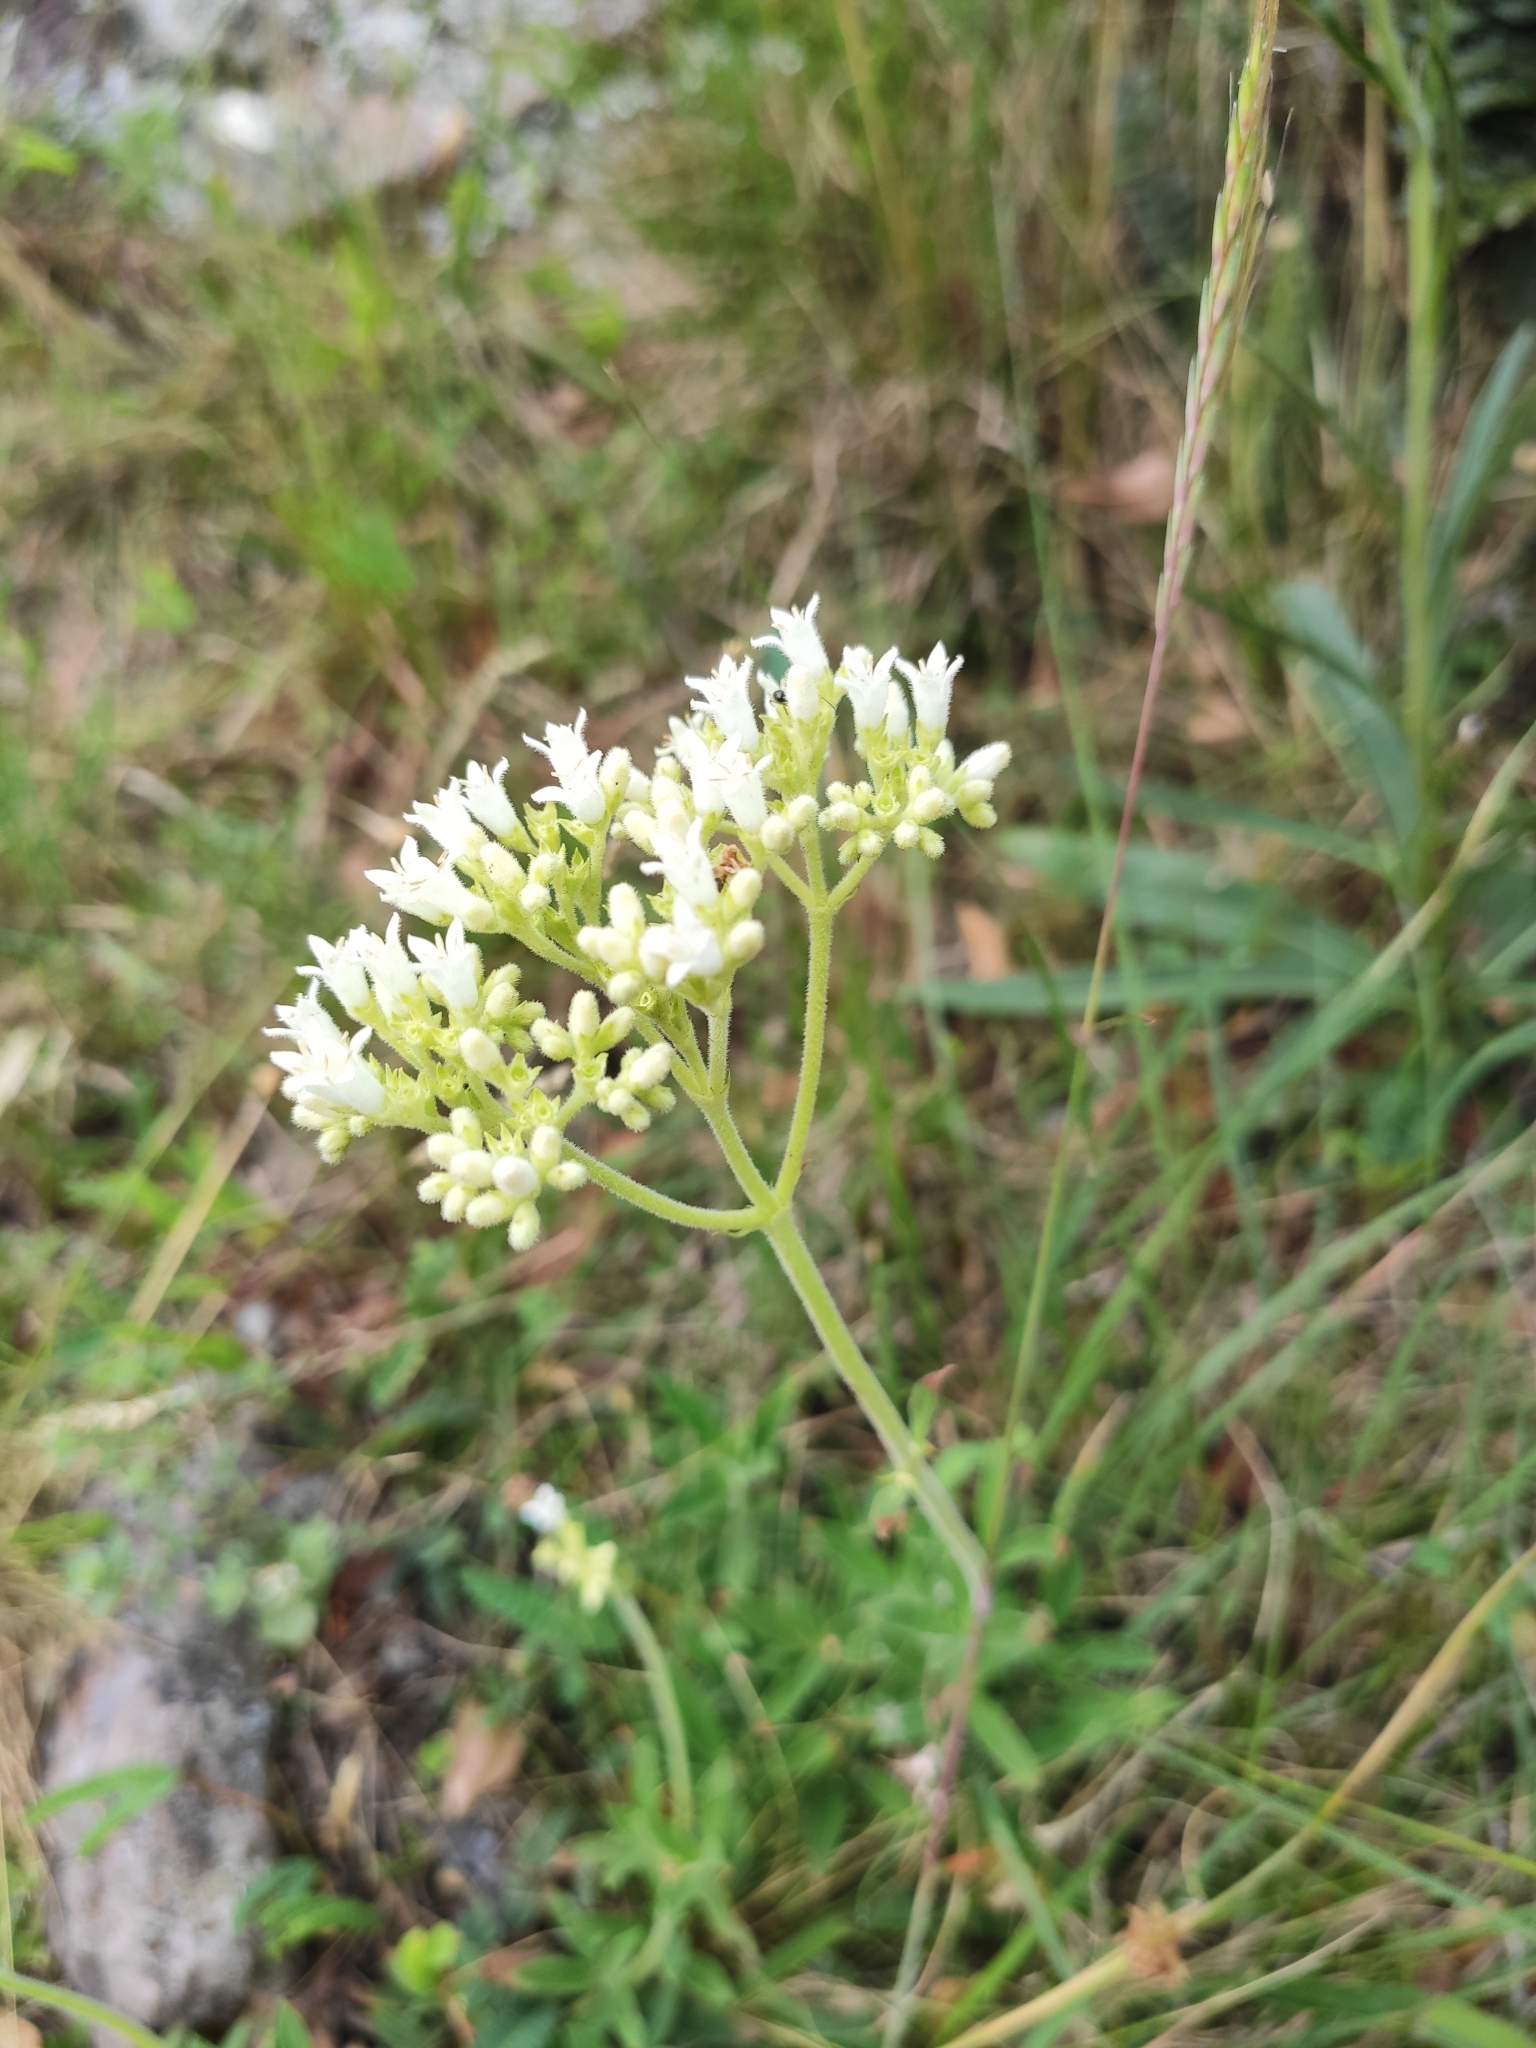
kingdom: Plantae
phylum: Tracheophyta
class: Magnoliopsida
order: Gentianales
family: Rubiaceae
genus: Galianthe
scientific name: Galianthe centranthoides
